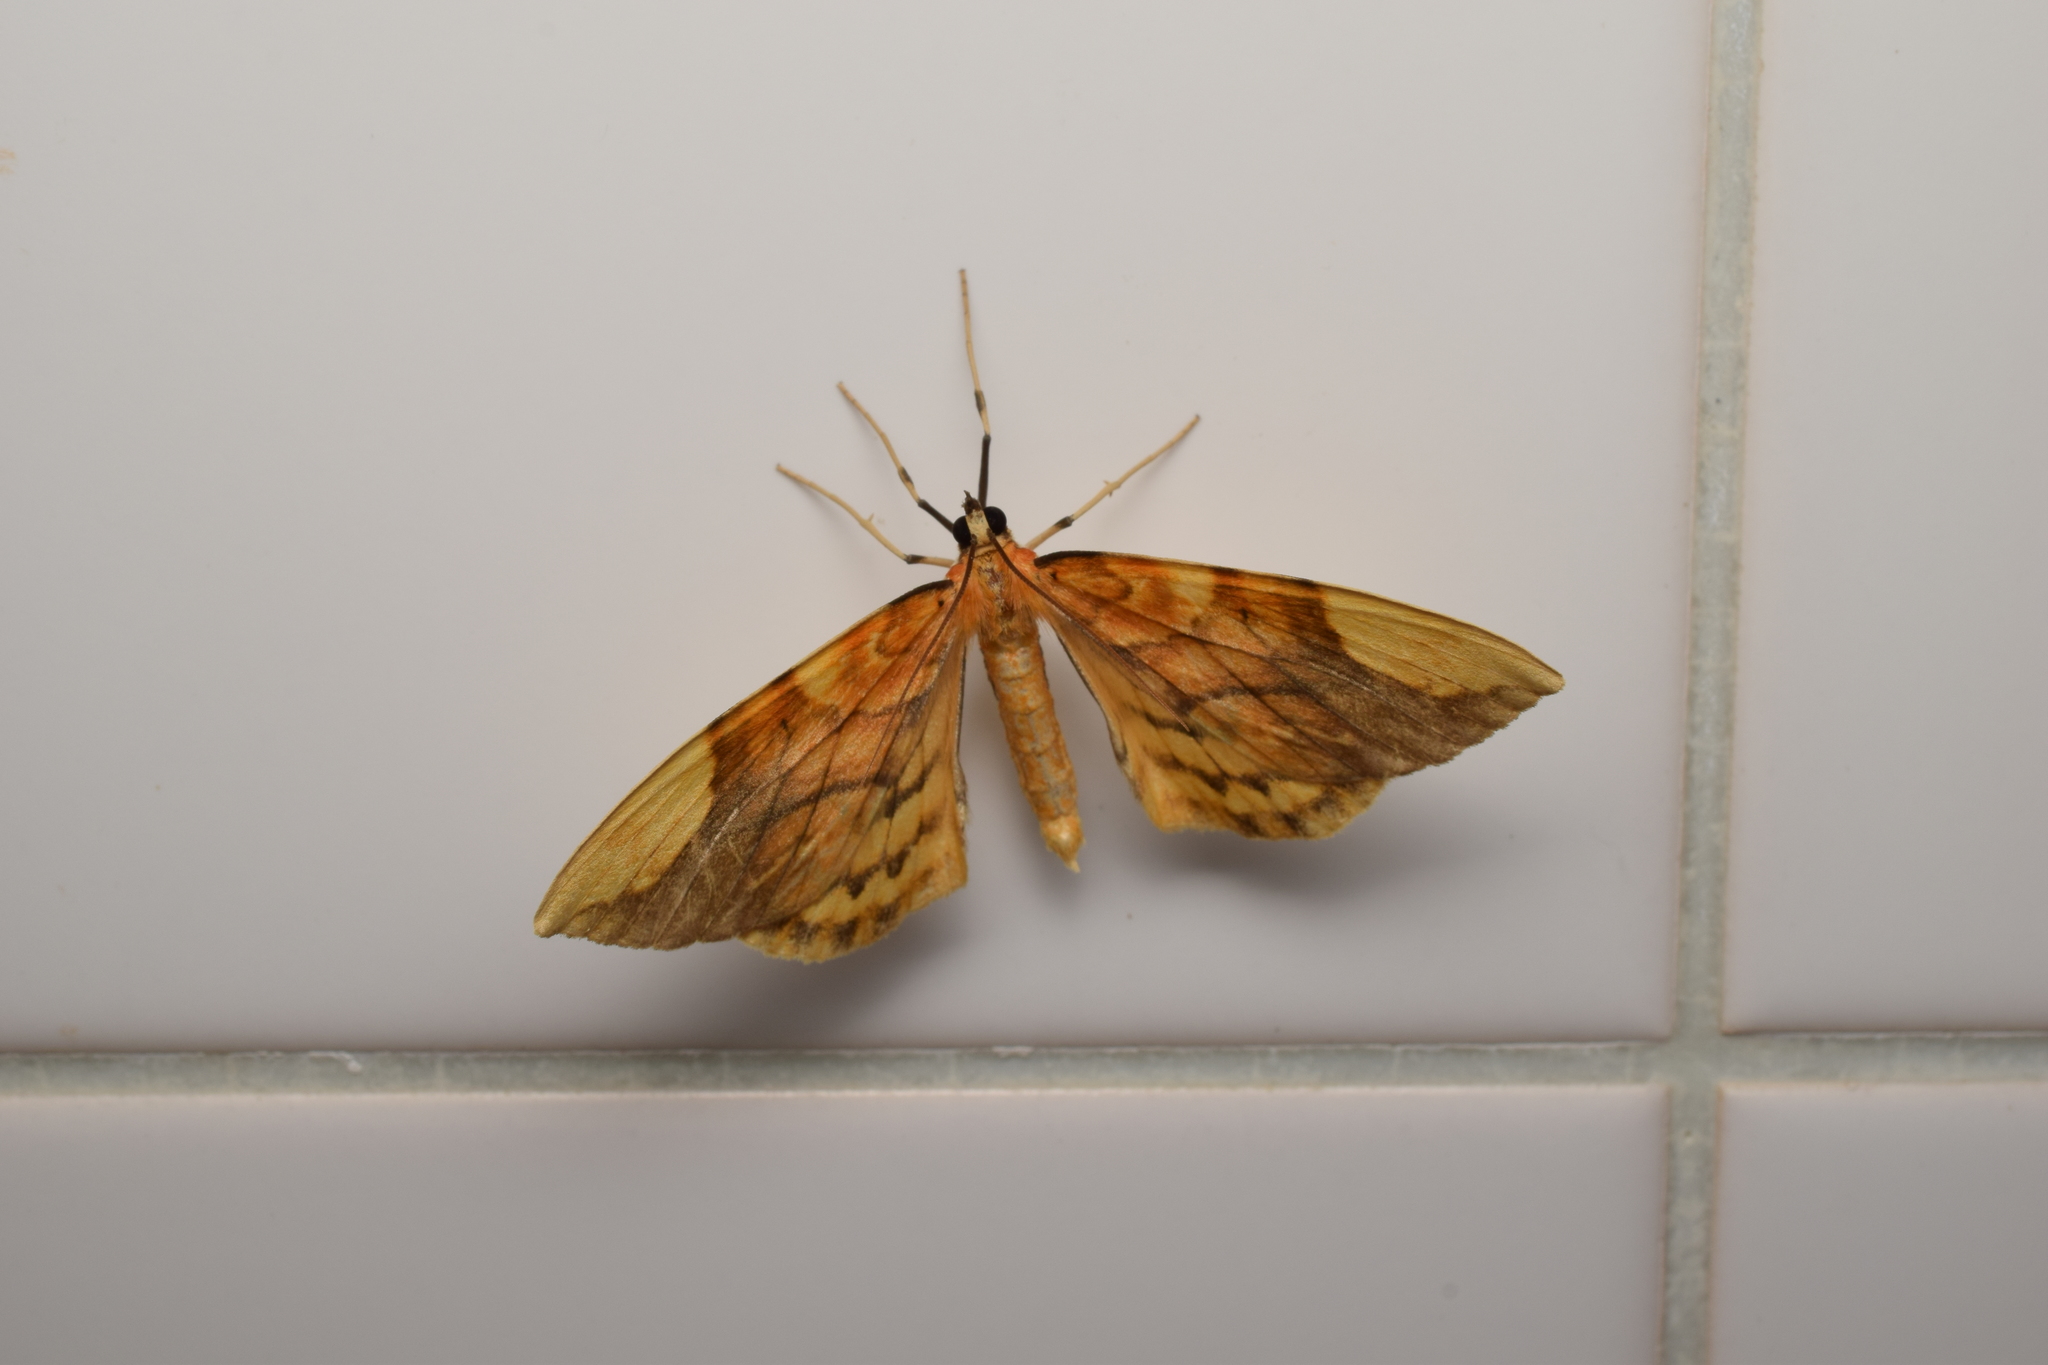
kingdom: Animalia
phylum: Arthropoda
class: Insecta
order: Lepidoptera
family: Geometridae
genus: Gandaritis
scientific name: Gandaritis fixseni
